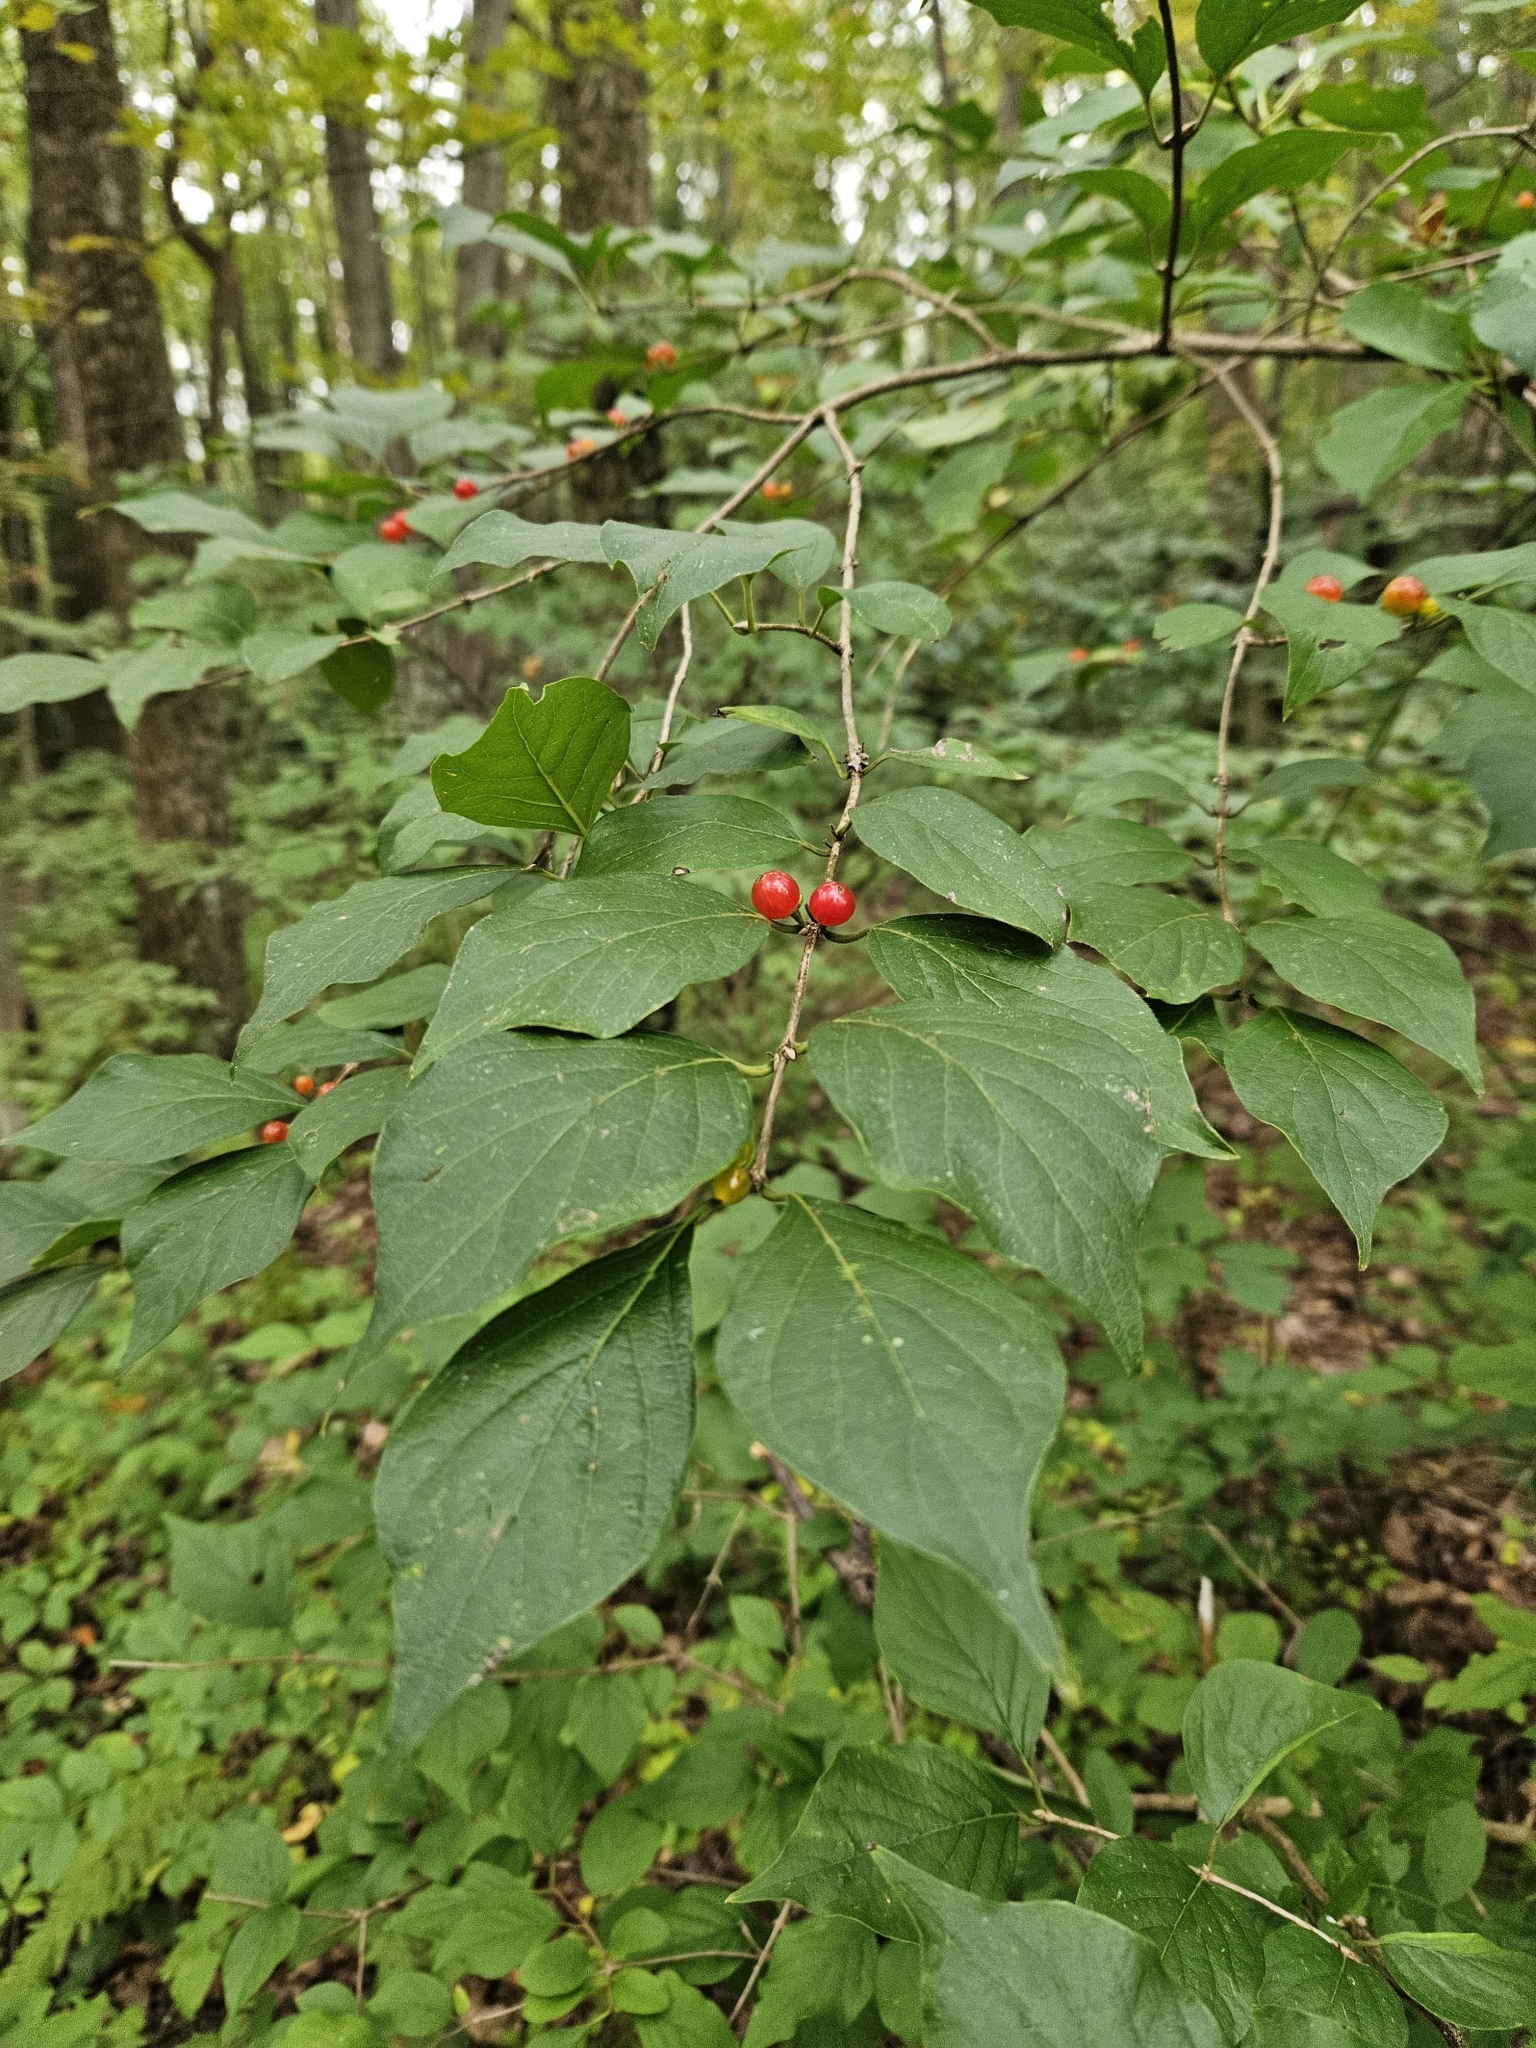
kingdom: Plantae
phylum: Tracheophyta
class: Magnoliopsida
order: Dipsacales
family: Caprifoliaceae
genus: Lonicera
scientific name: Lonicera maackii
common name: Amur honeysuckle
